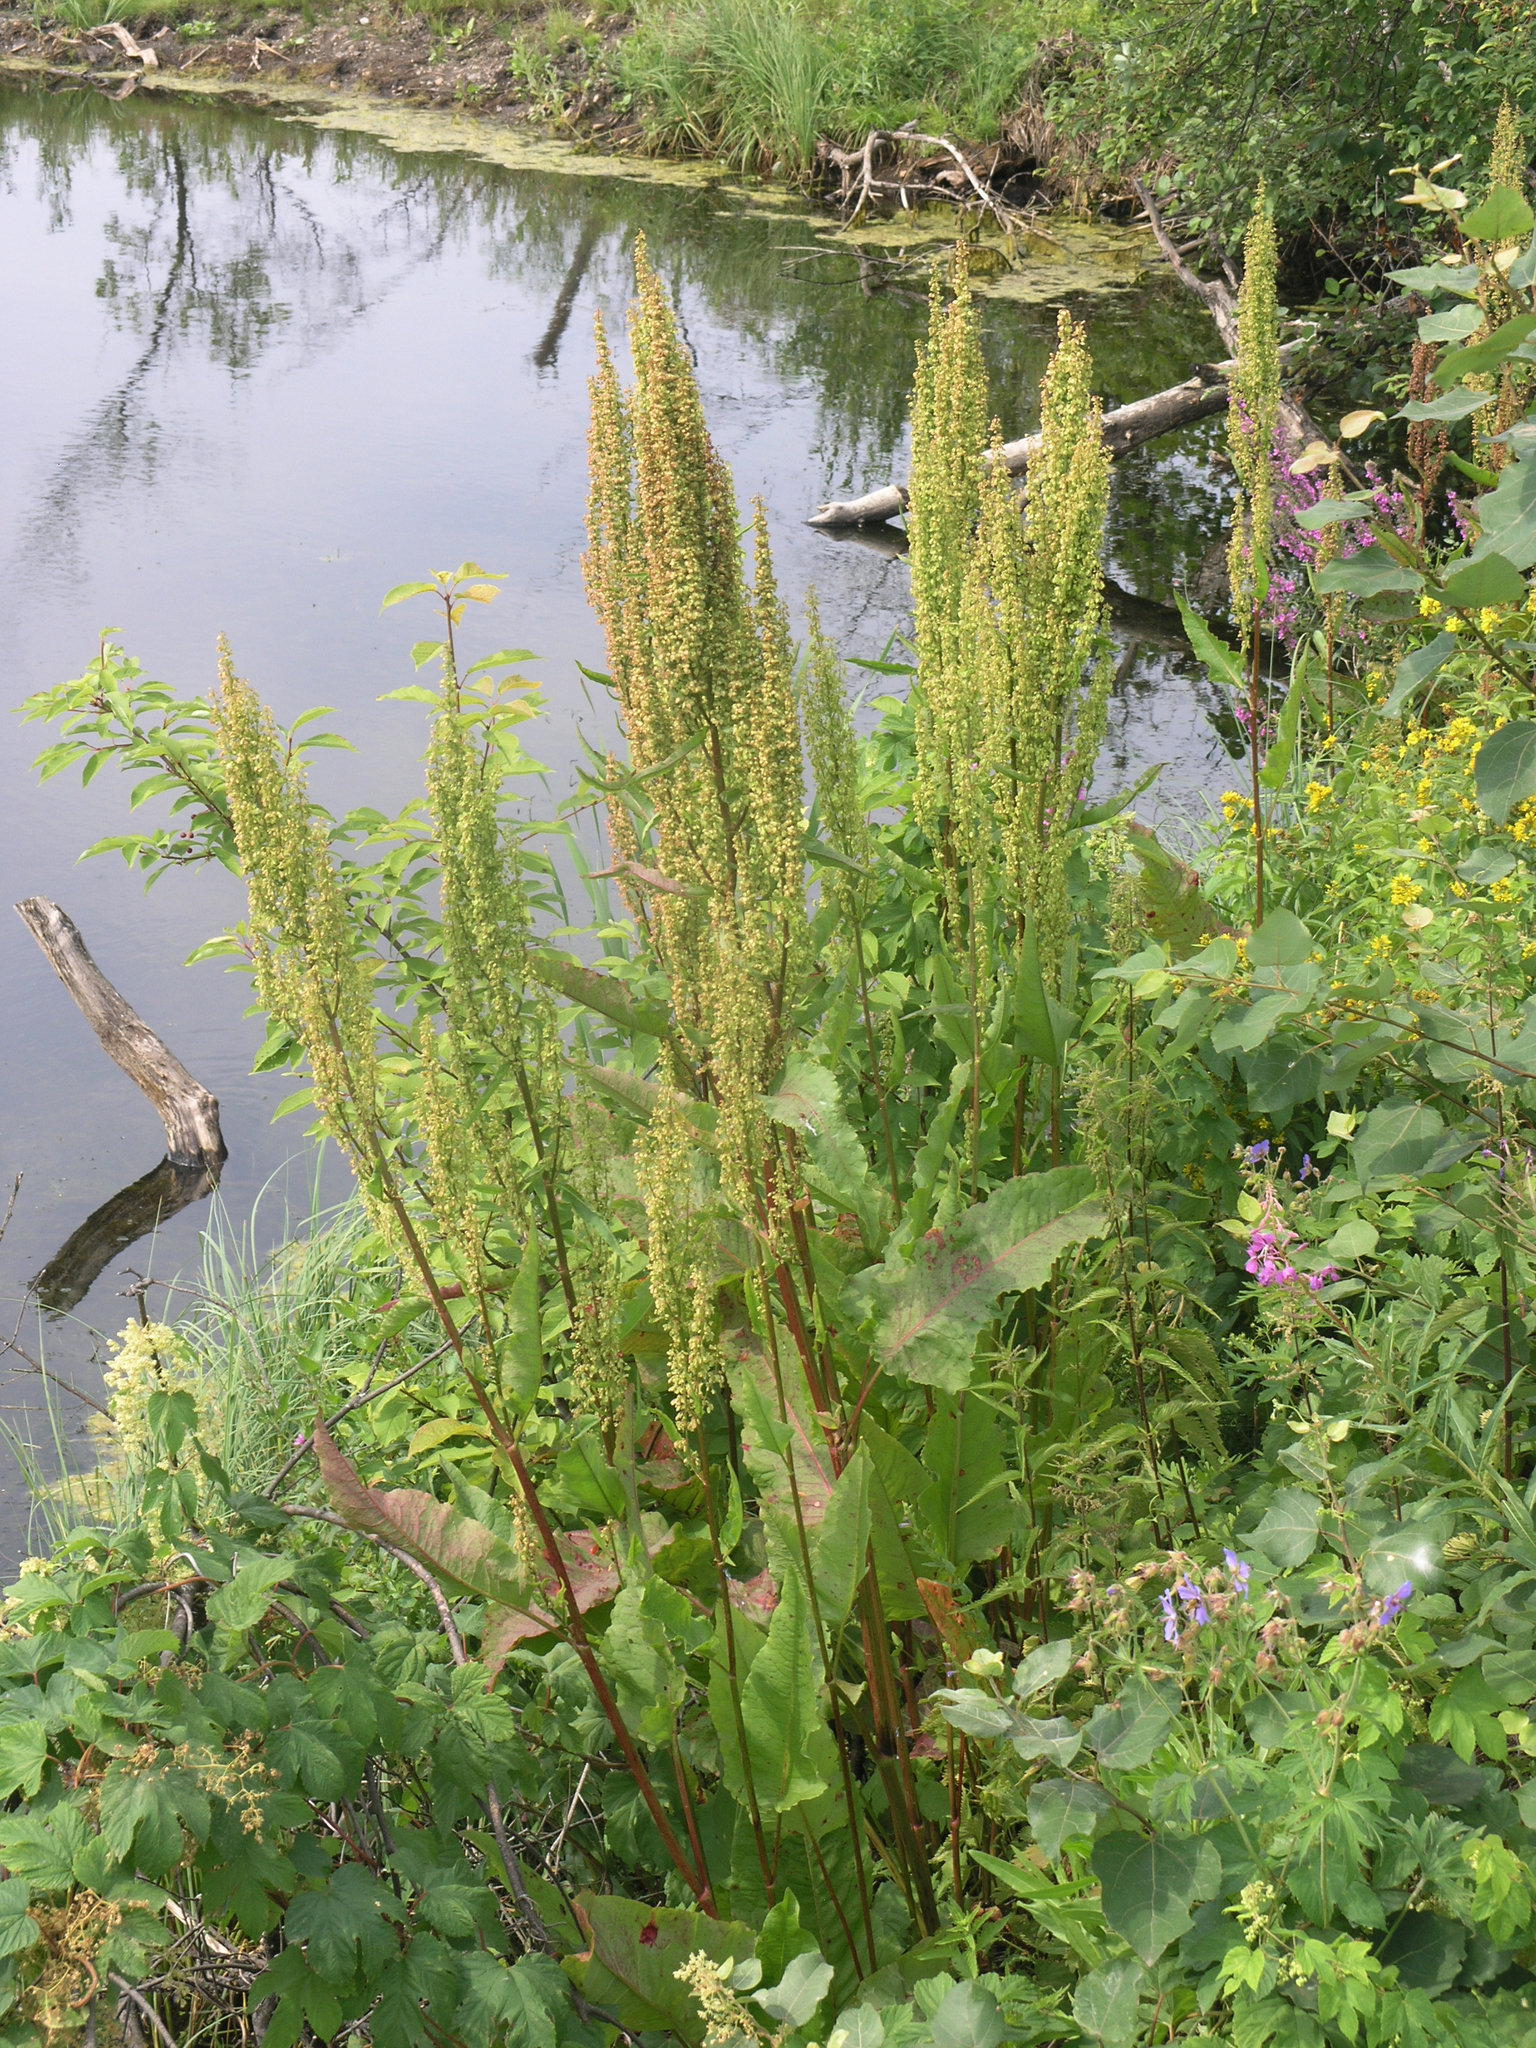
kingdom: Plantae
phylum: Tracheophyta
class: Magnoliopsida
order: Caryophyllales
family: Polygonaceae
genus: Rumex
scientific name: Rumex aquaticus
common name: Scottish dock
